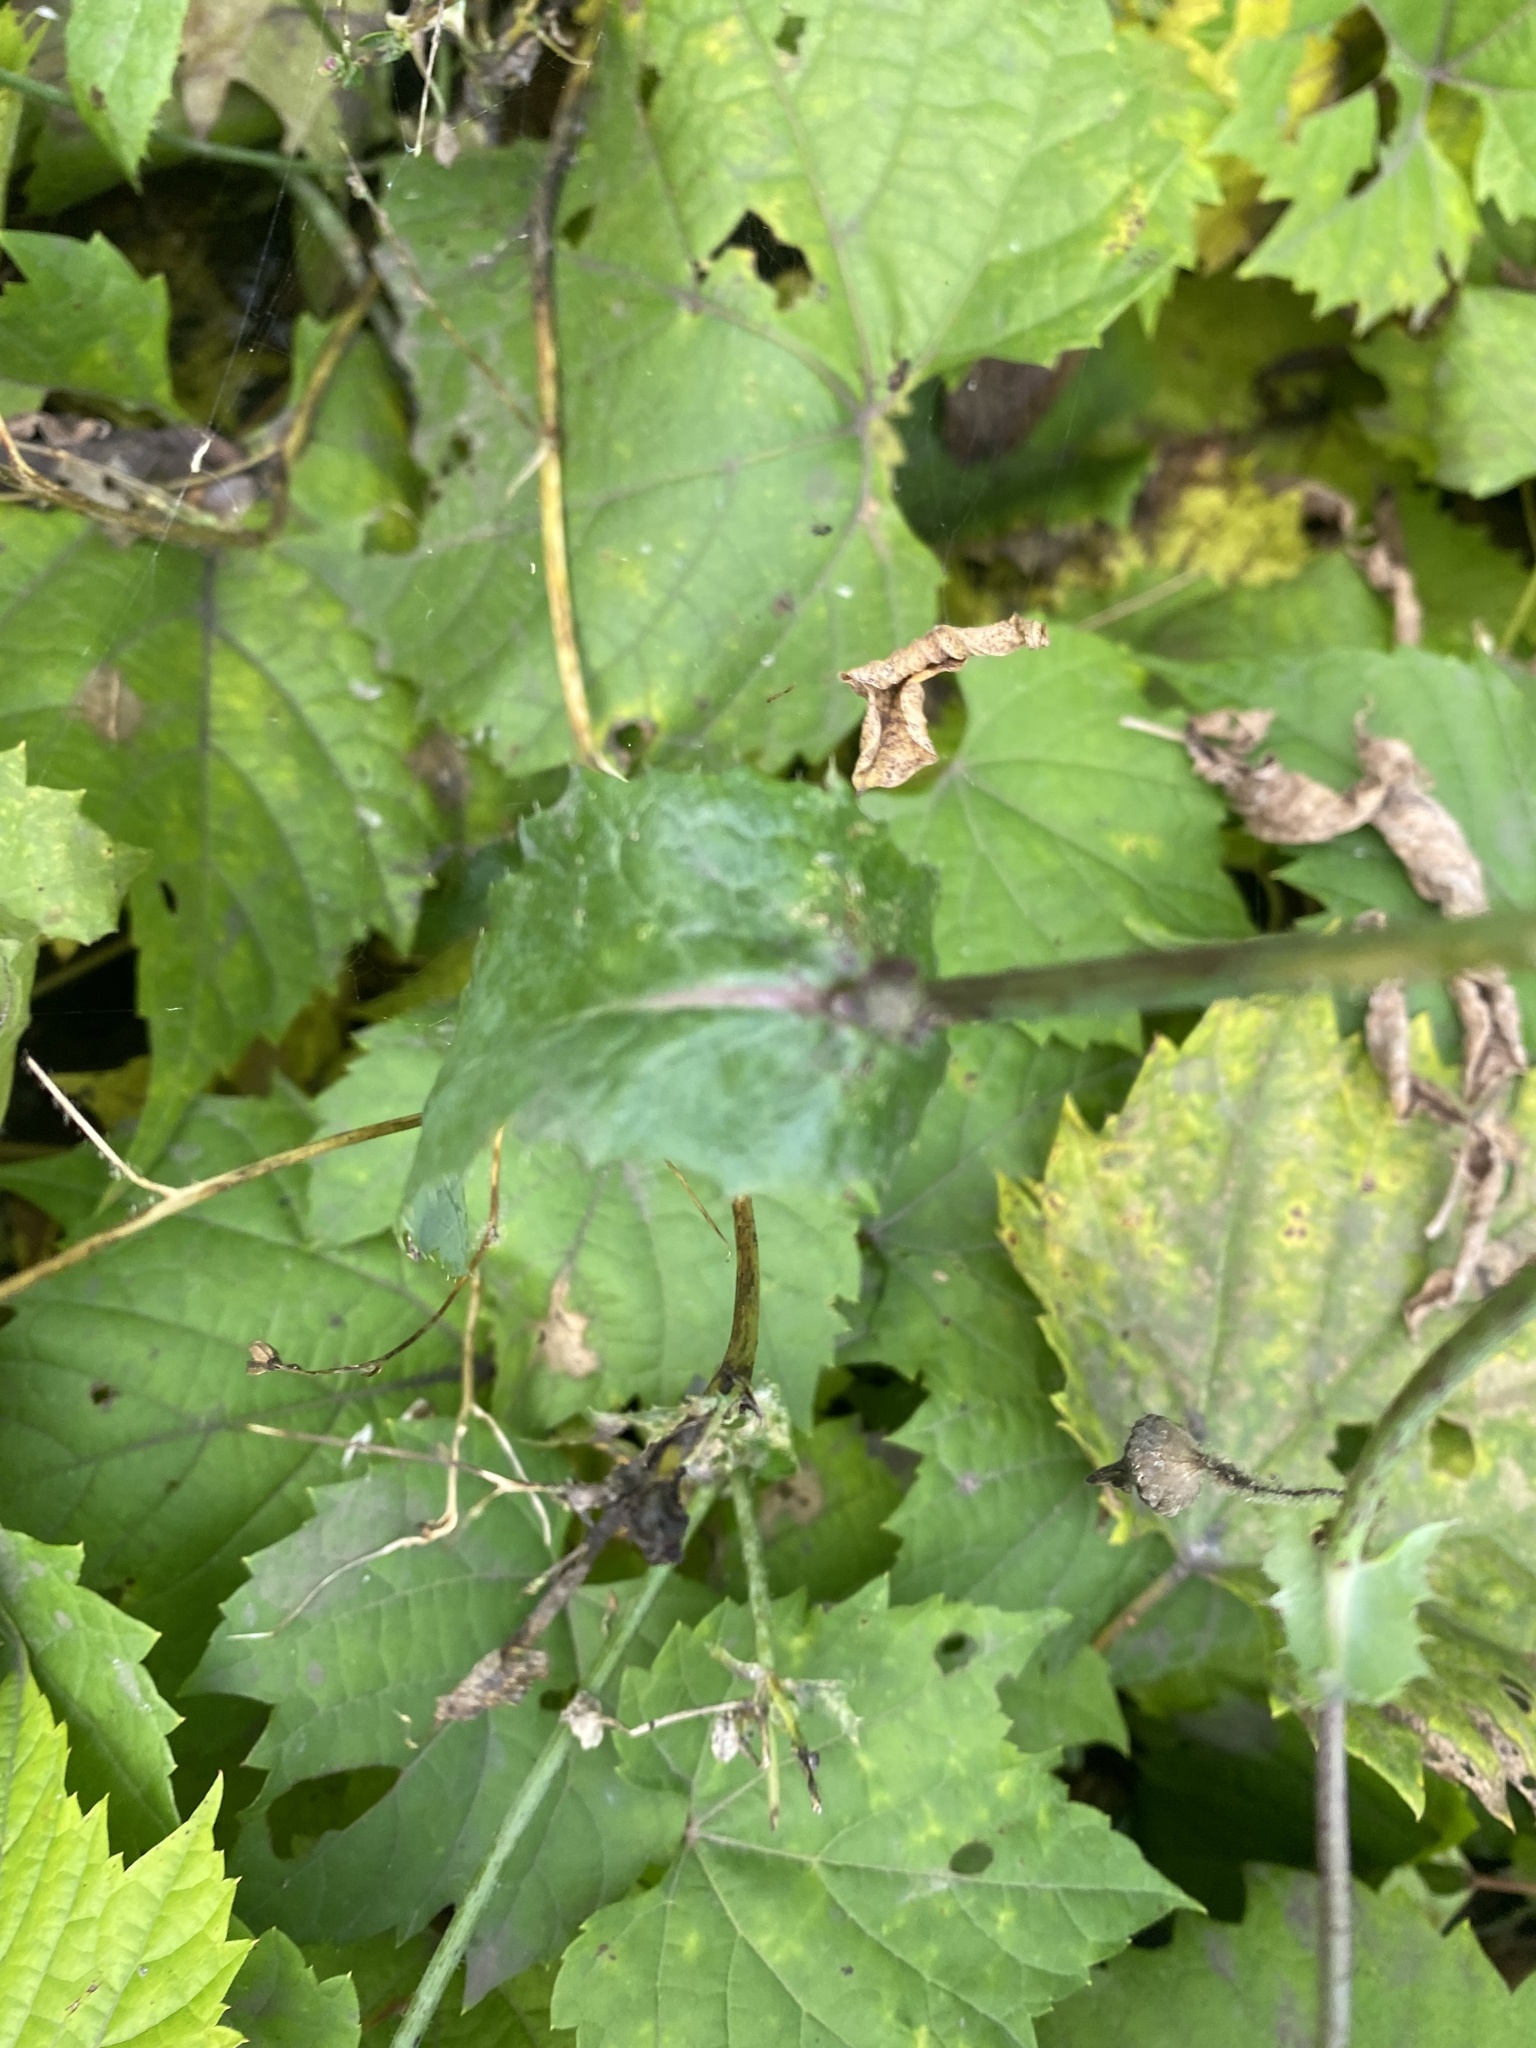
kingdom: Plantae
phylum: Tracheophyta
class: Magnoliopsida
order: Asterales
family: Asteraceae
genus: Sonchus
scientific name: Sonchus oleraceus
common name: Common sowthistle
